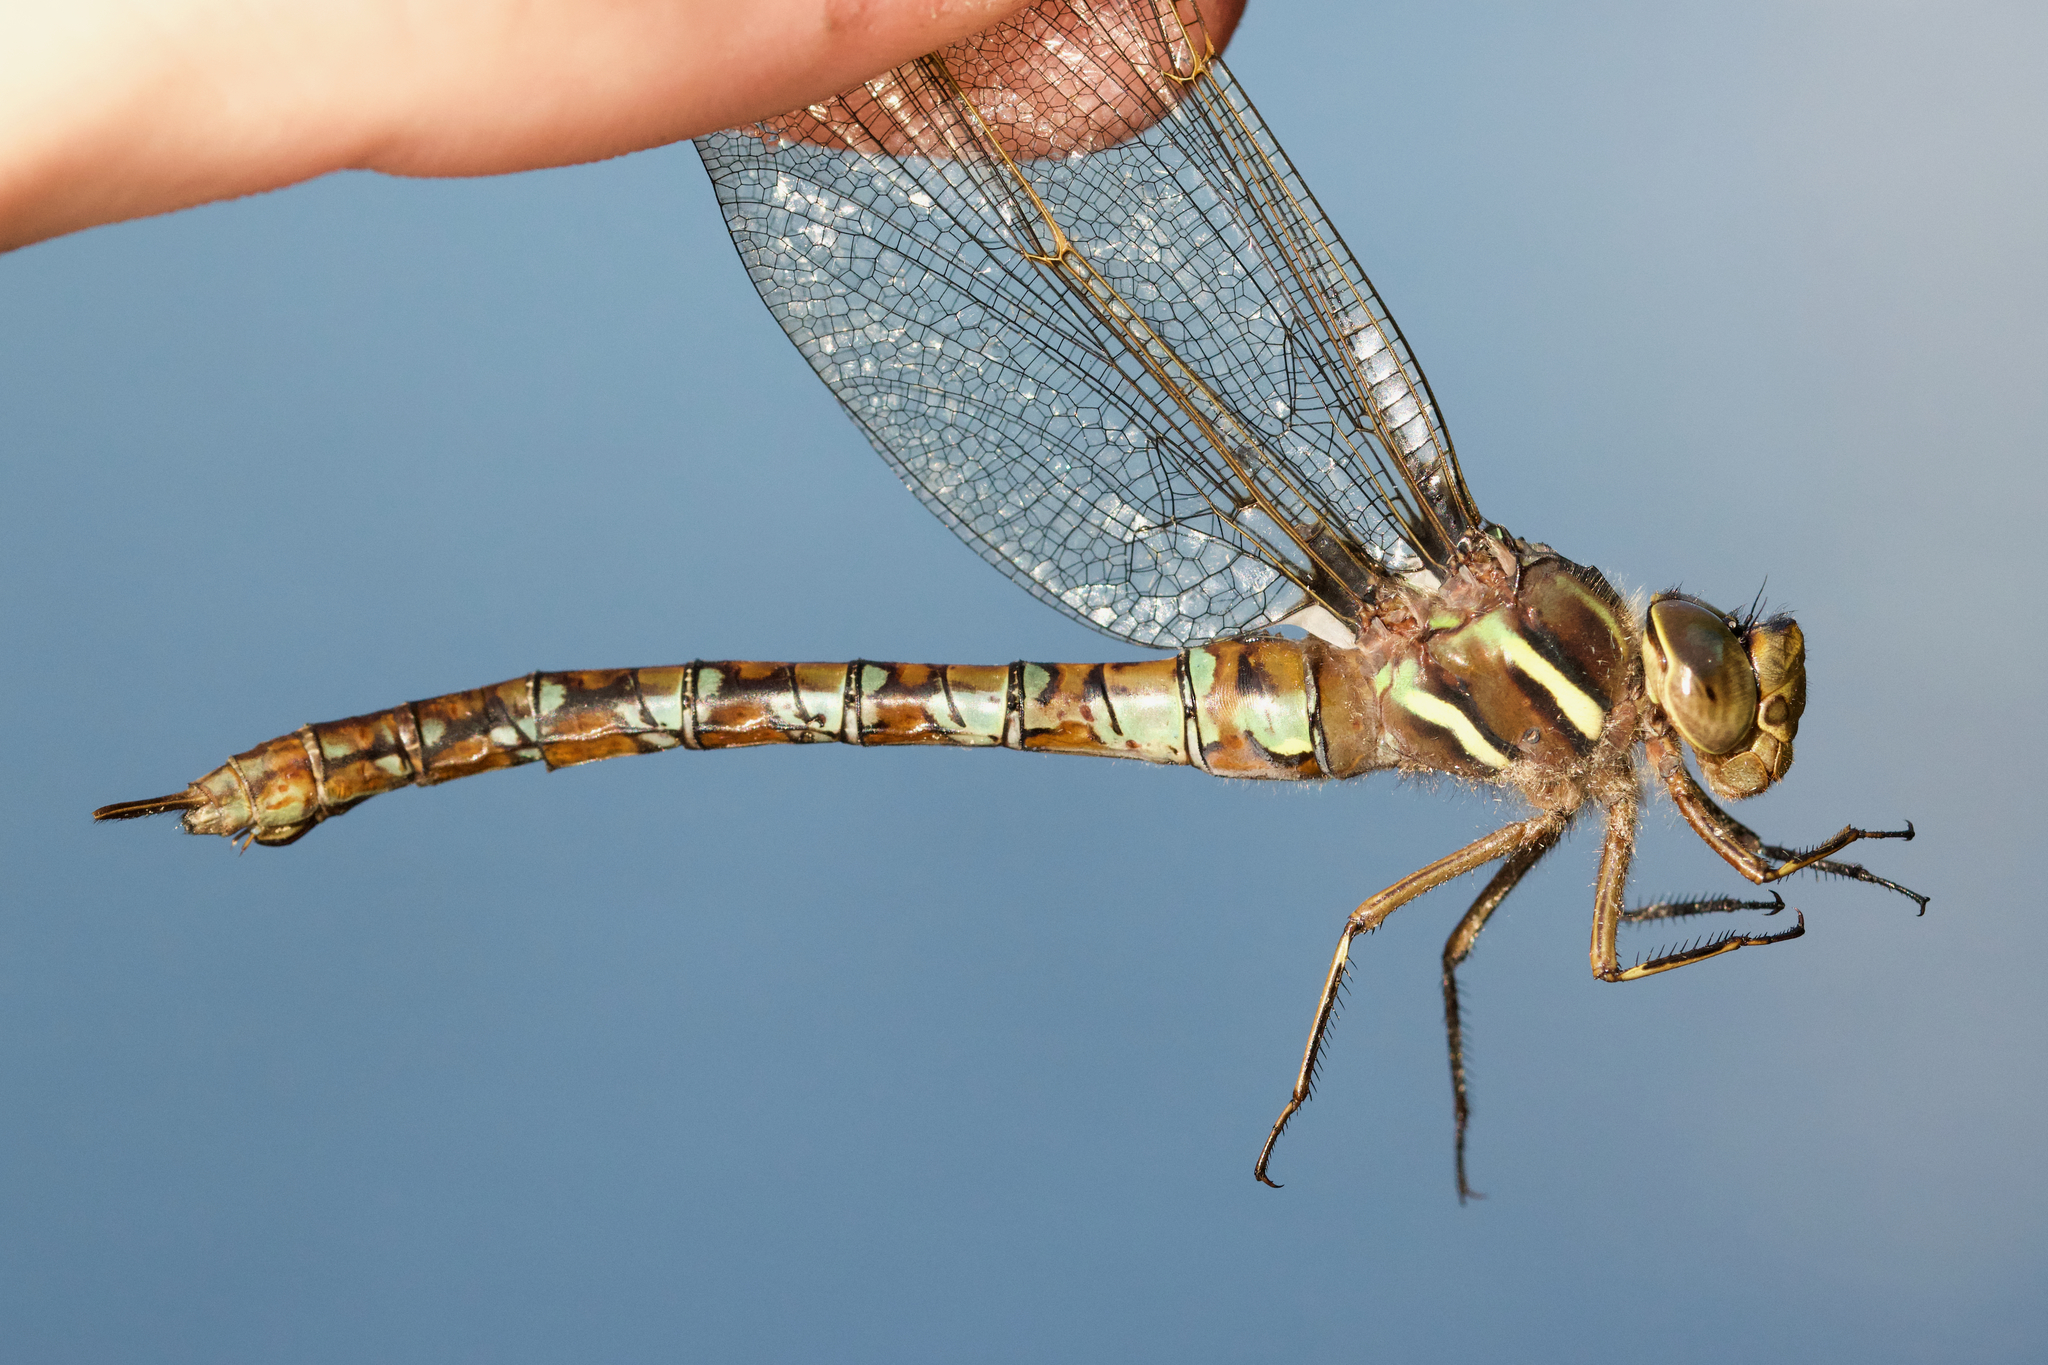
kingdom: Animalia
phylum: Arthropoda
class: Insecta
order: Odonata
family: Aeshnidae
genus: Basiaeschna
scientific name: Basiaeschna janata
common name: Springtime darner
